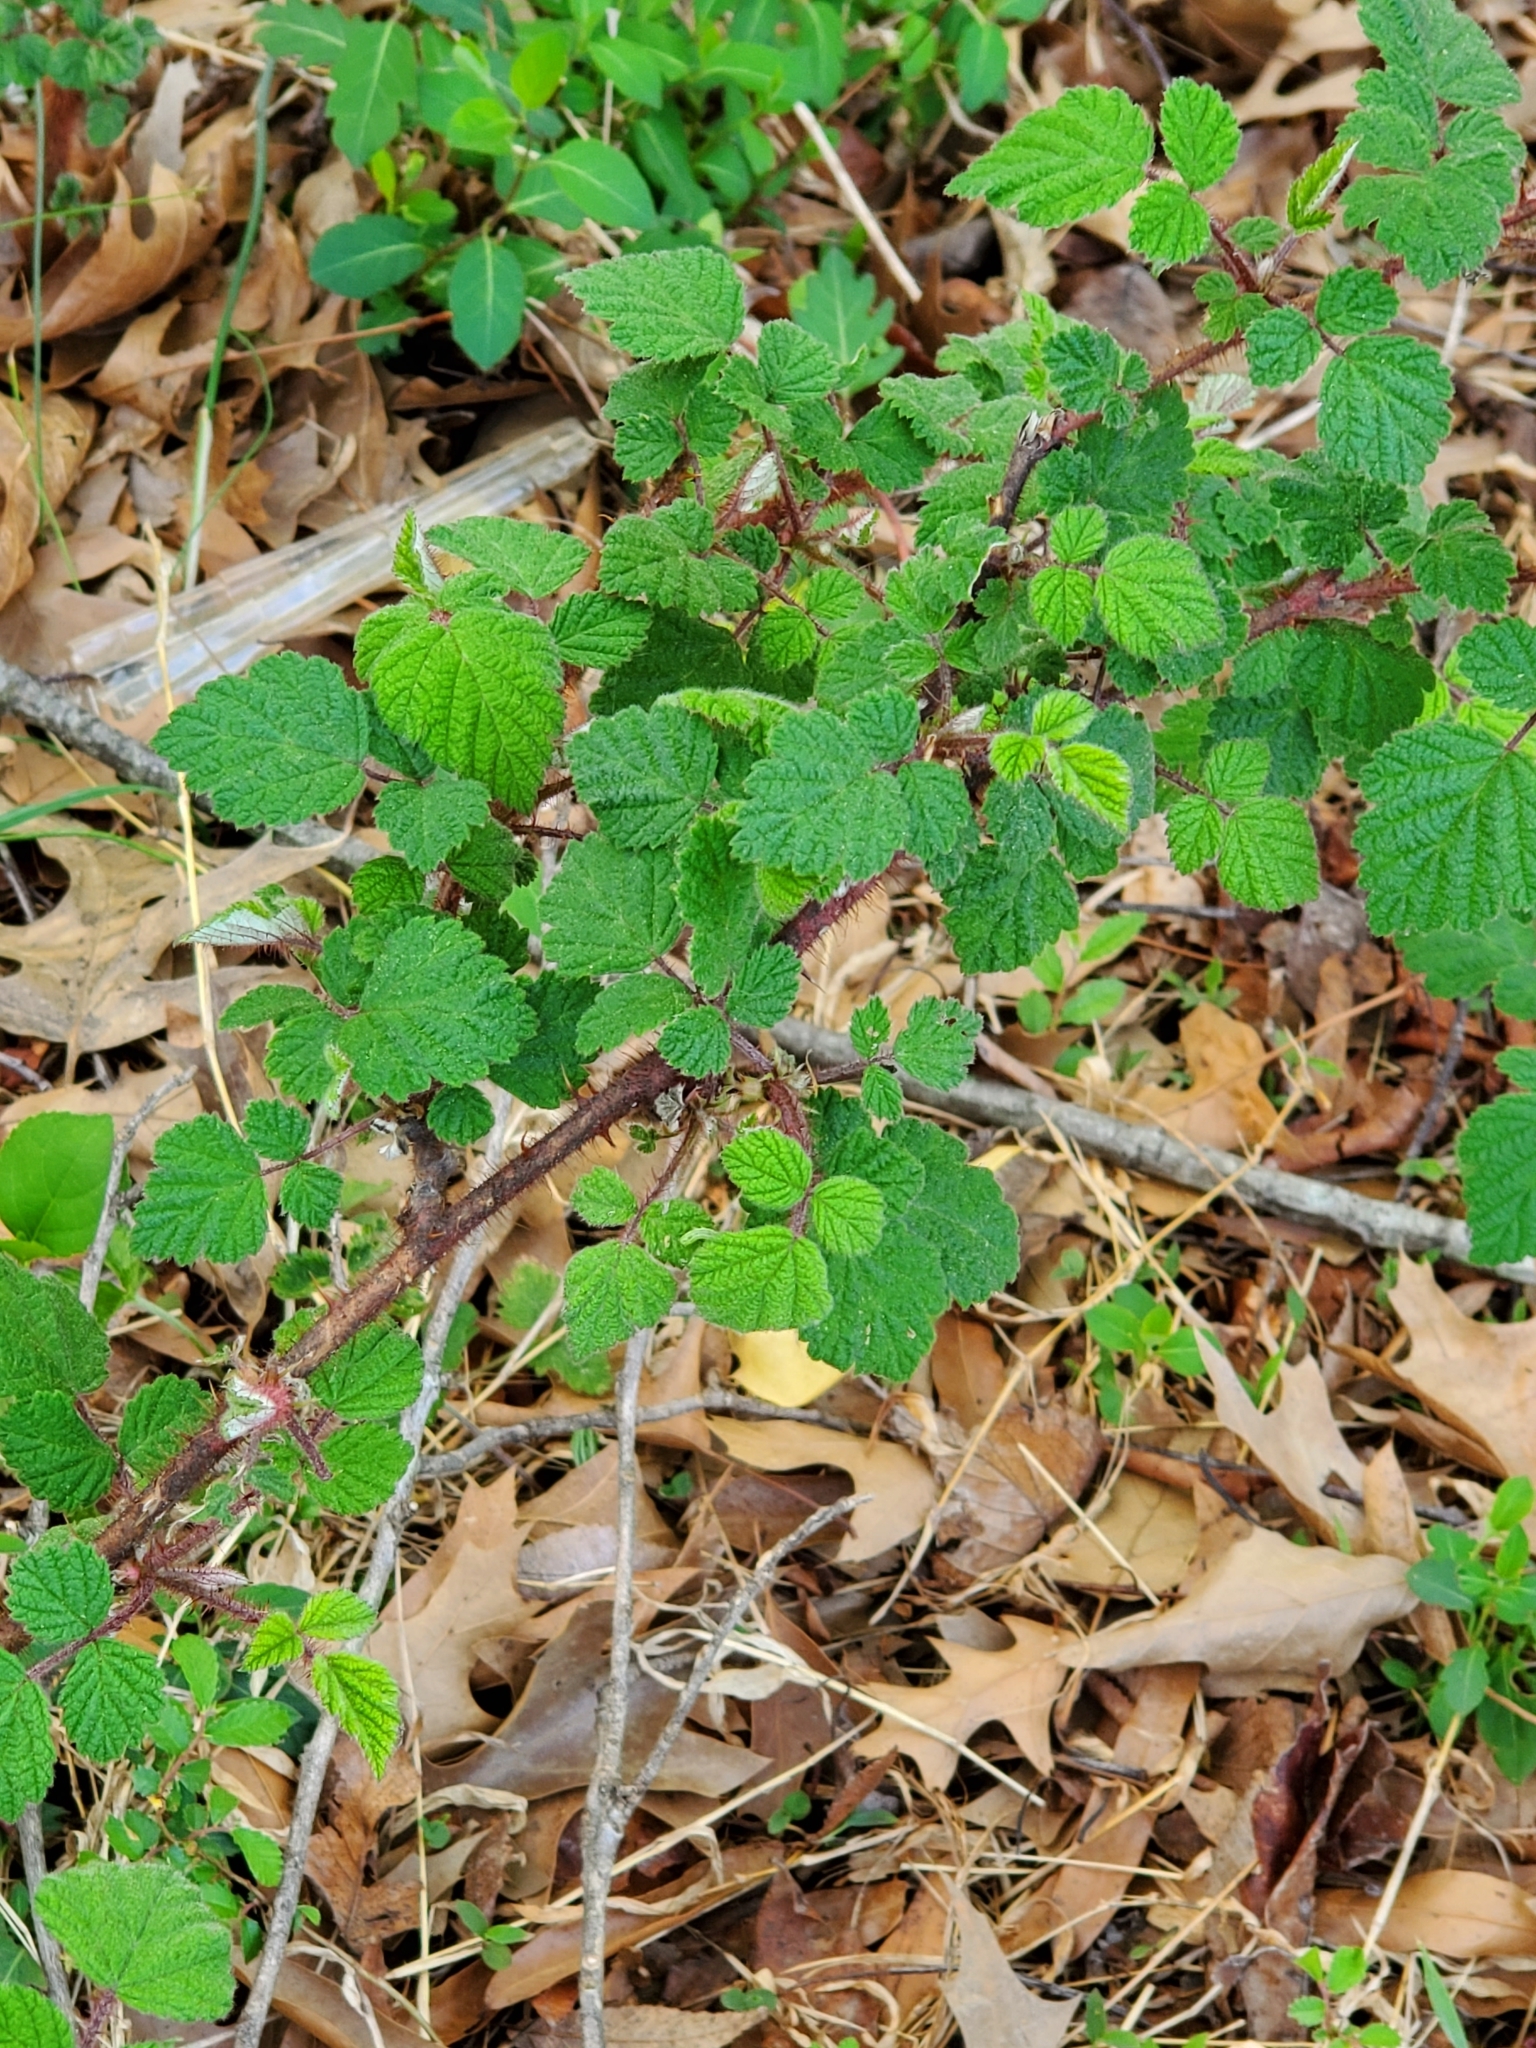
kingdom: Plantae
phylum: Tracheophyta
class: Magnoliopsida
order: Rosales
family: Rosaceae
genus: Rubus
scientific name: Rubus phoenicolasius
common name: Japanese wineberry
